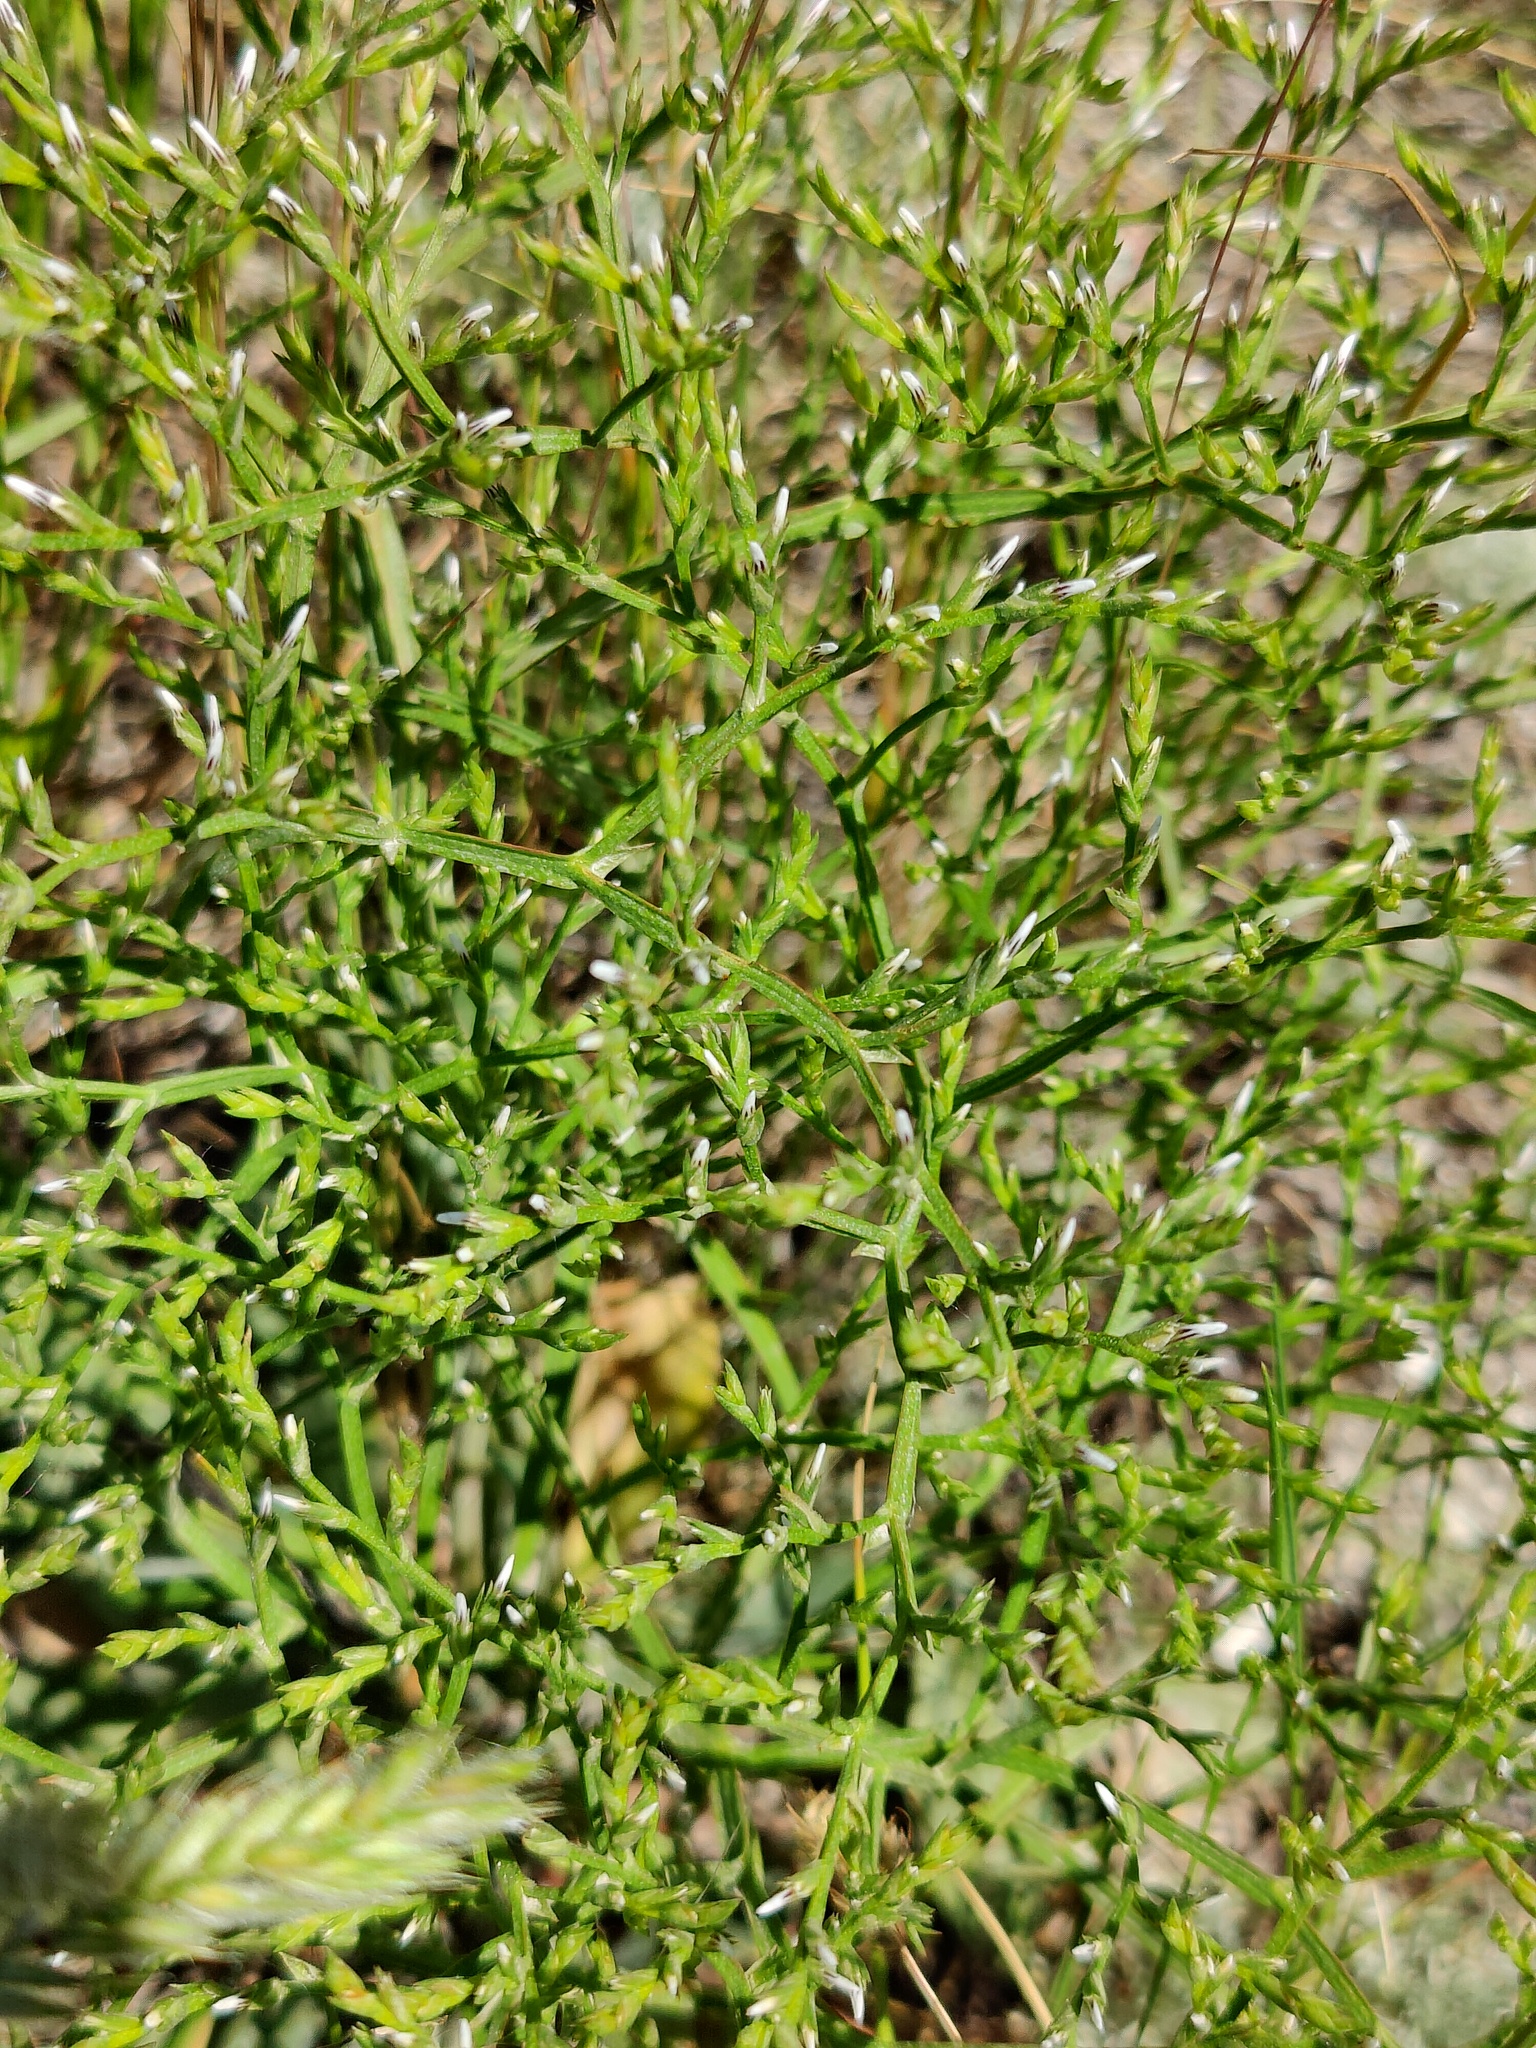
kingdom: Plantae
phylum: Tracheophyta
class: Magnoliopsida
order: Caryophyllales
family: Plumbaginaceae
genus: Goniolimon
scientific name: Goniolimon tataricum
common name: Statice
